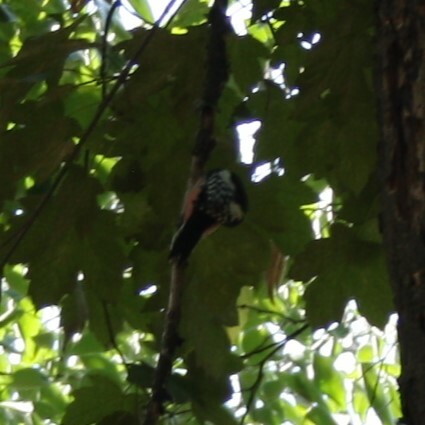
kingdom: Animalia
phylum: Chordata
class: Aves
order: Piciformes
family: Picidae
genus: Dendrocoptes
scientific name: Dendrocoptes medius
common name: Middle spotted woodpecker
